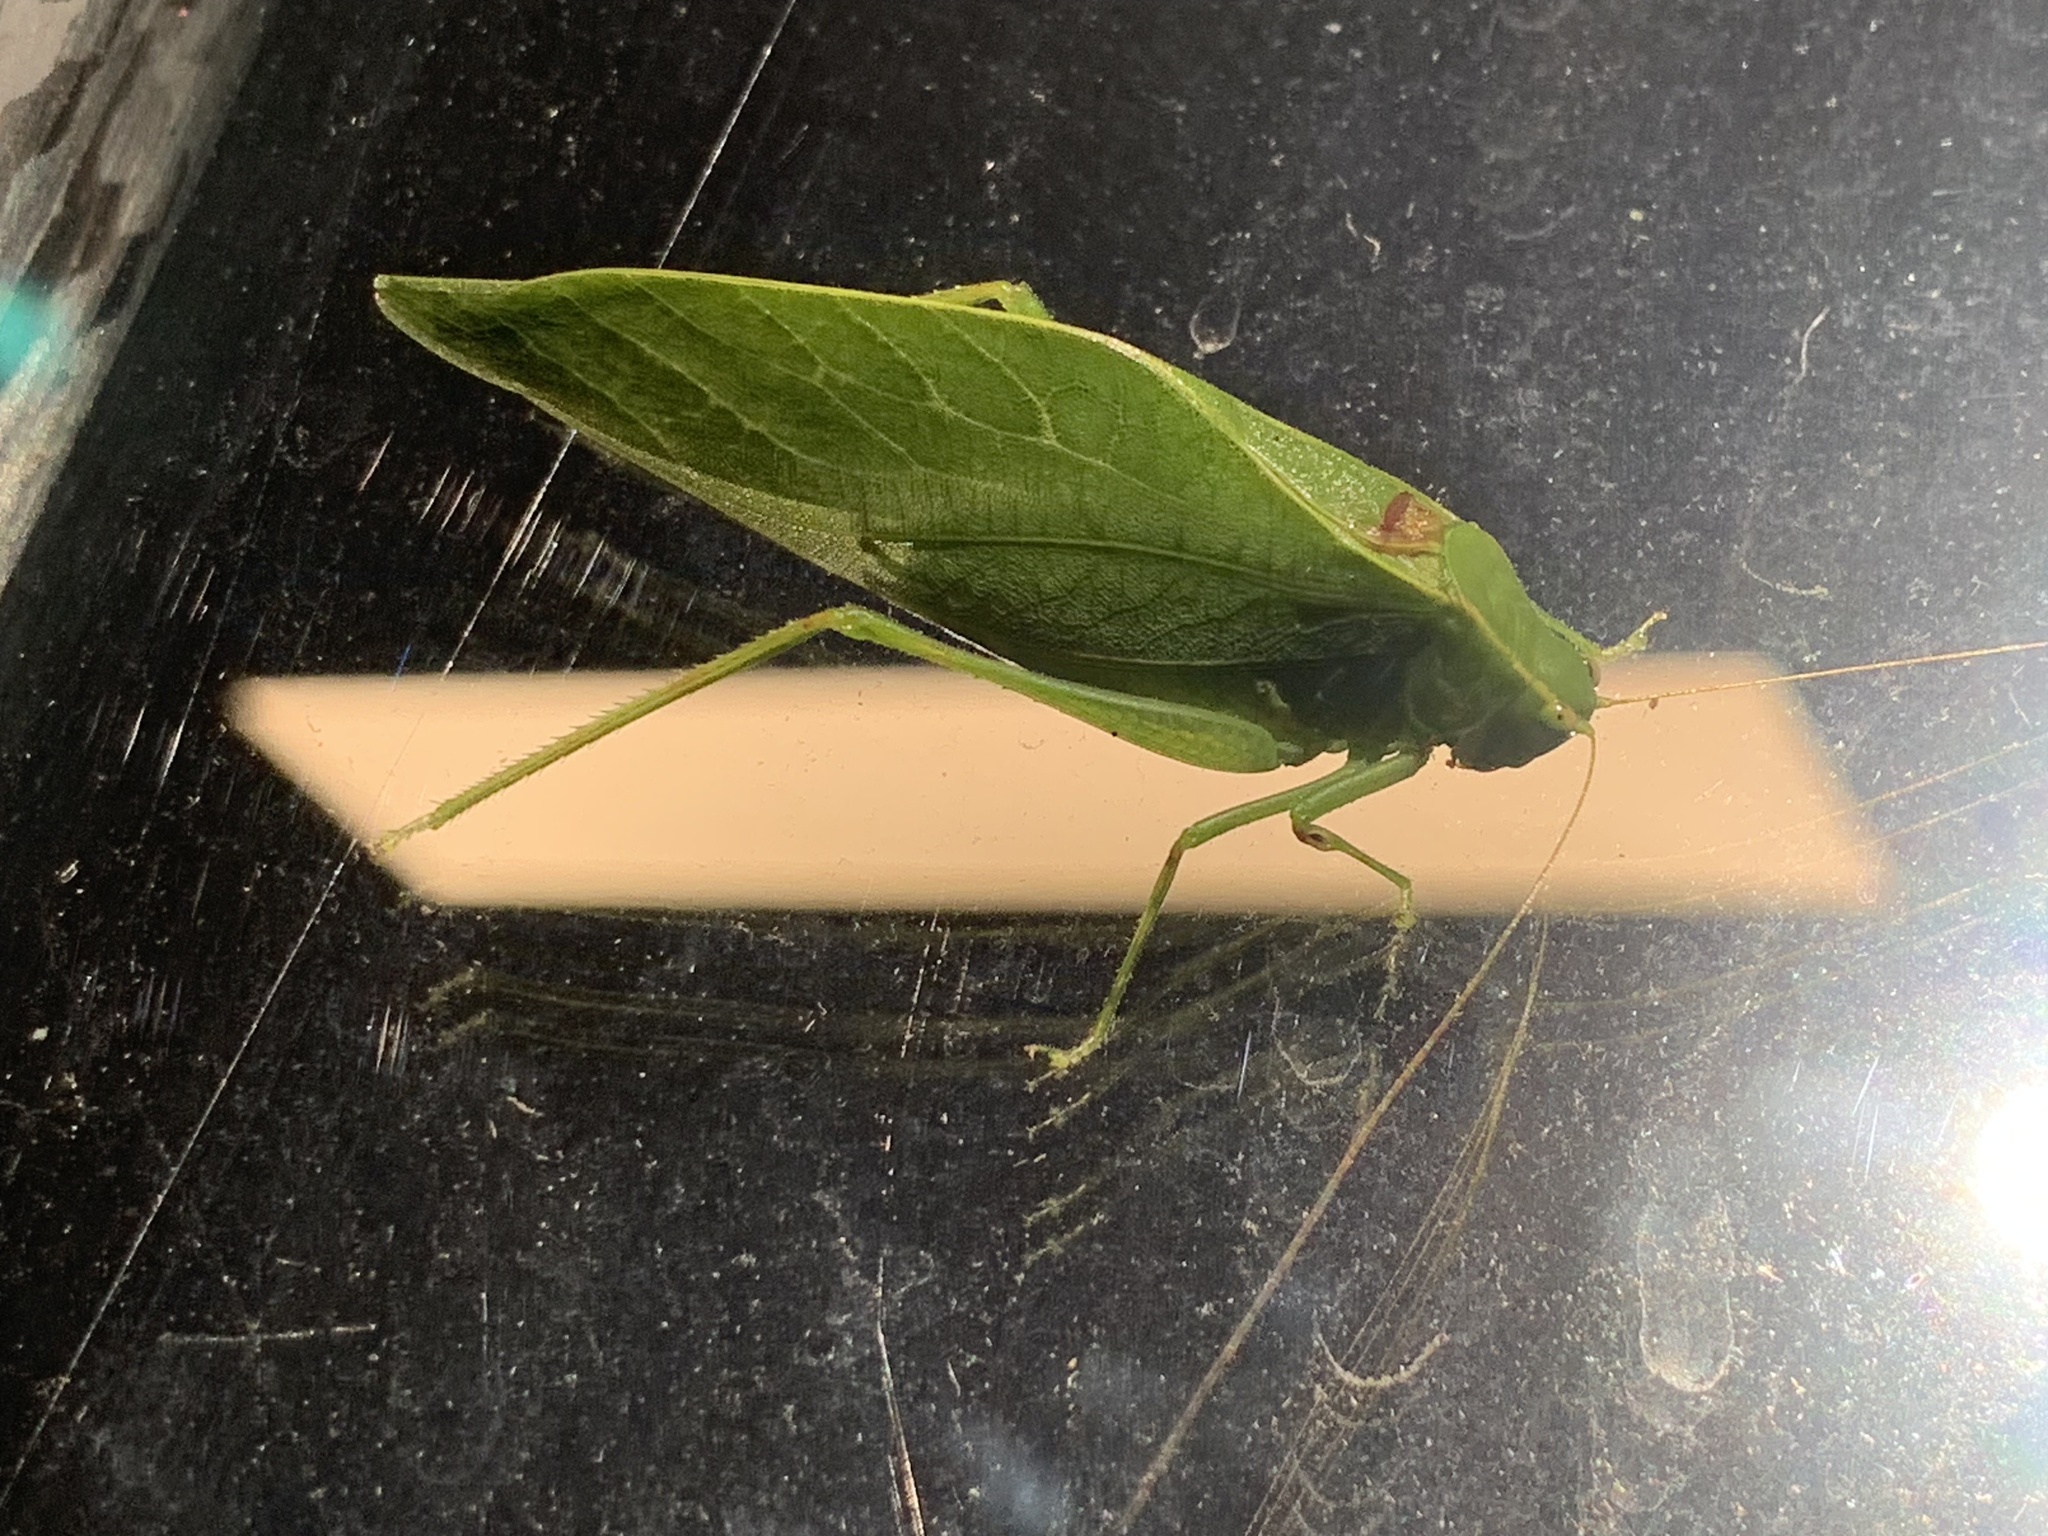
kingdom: Animalia
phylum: Arthropoda
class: Insecta
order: Orthoptera
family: Tettigoniidae
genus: Microcentrum
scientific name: Microcentrum retinerve
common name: Angular-winged katydid
